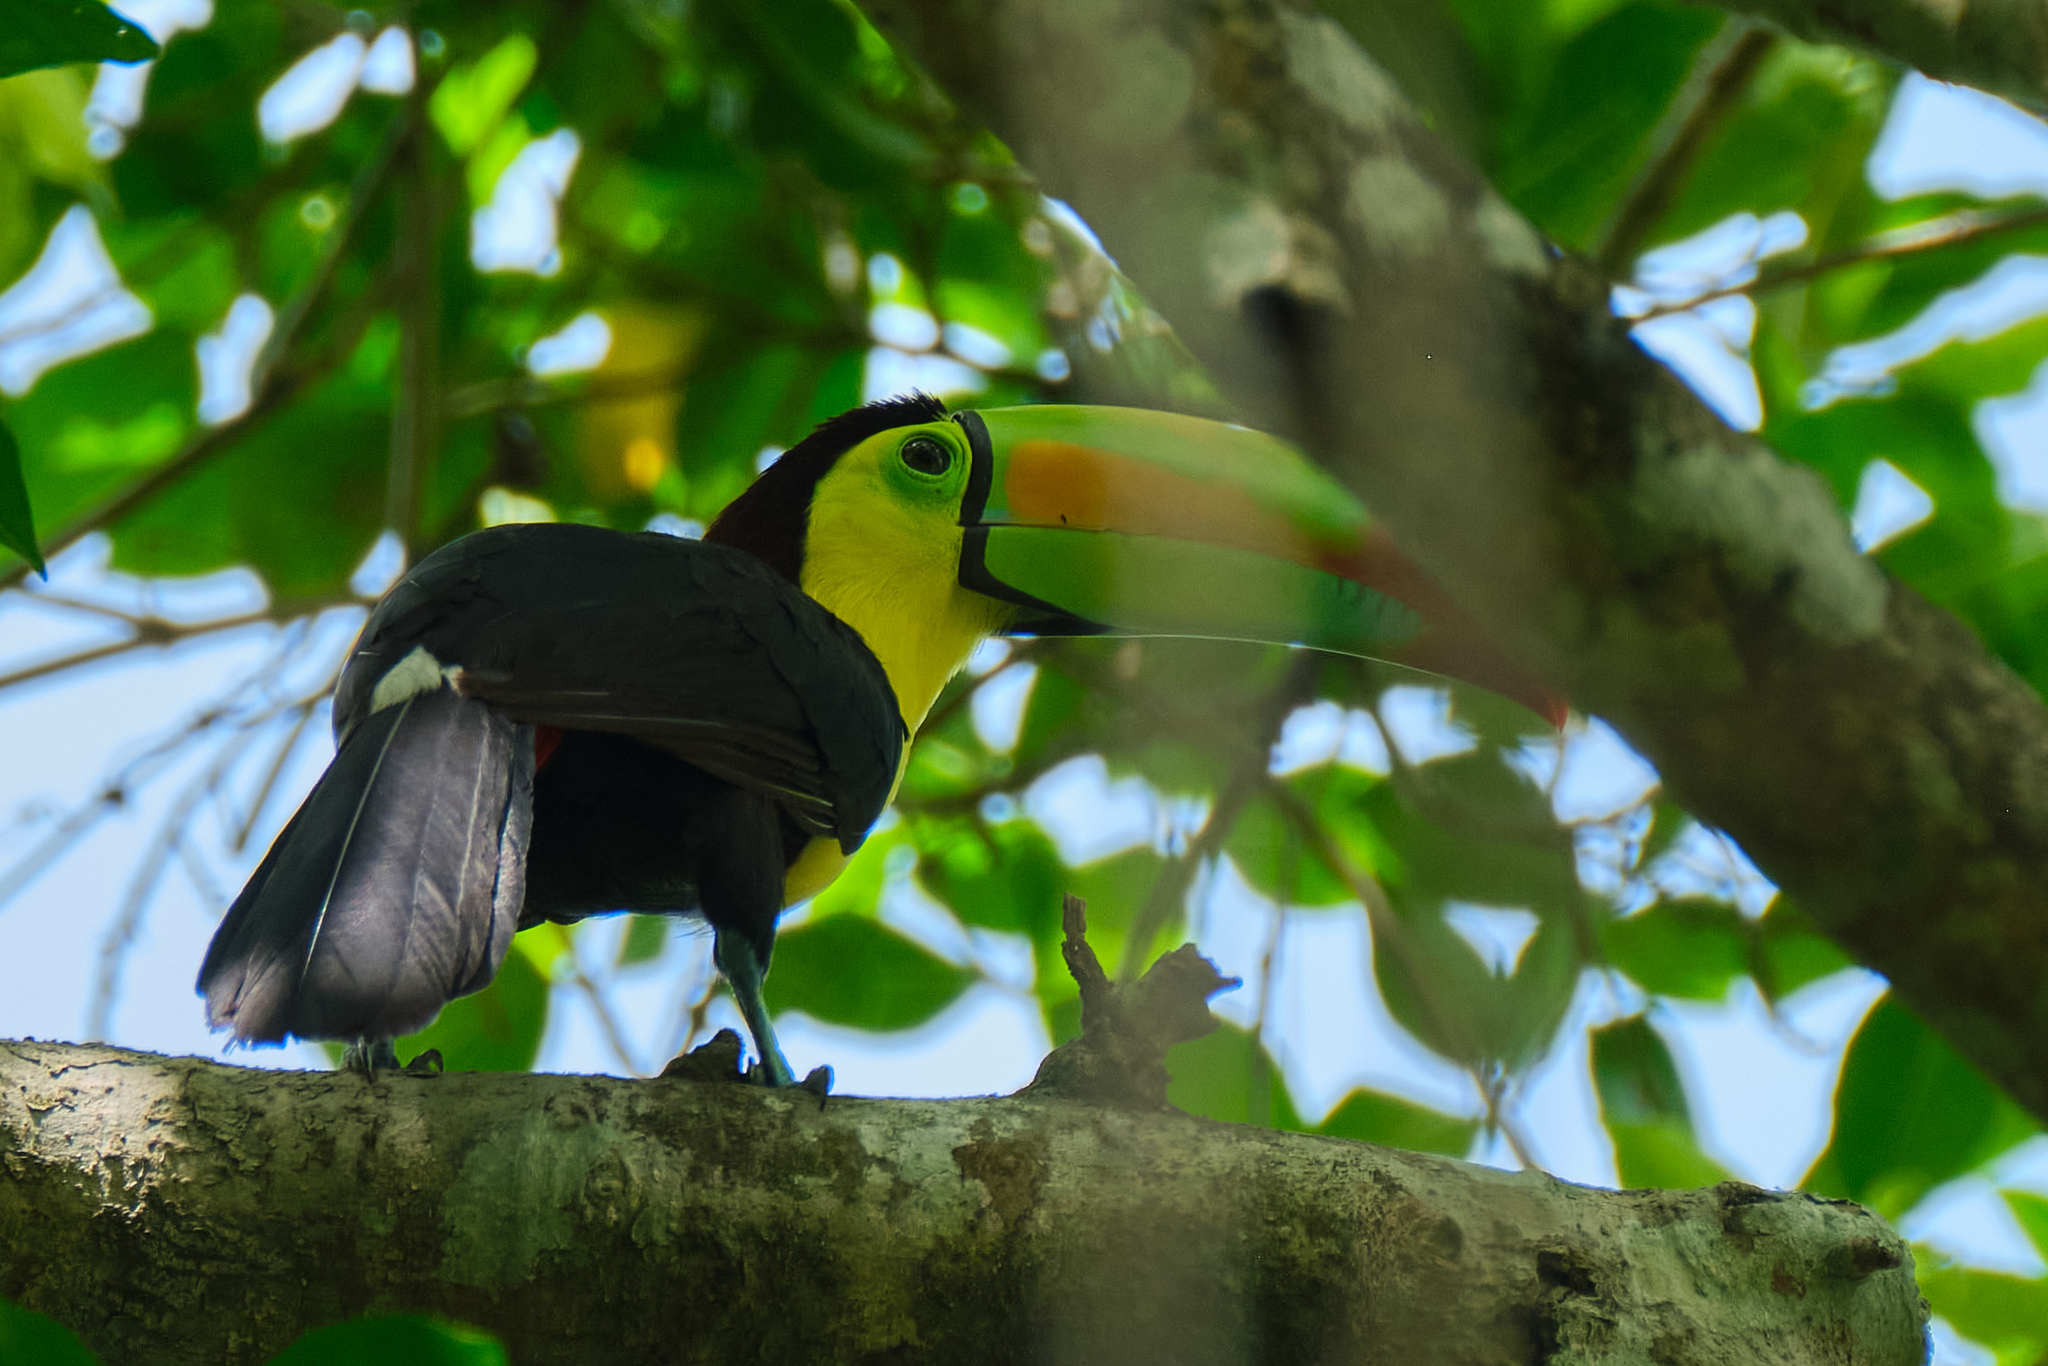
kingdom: Animalia
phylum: Chordata
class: Aves
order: Piciformes
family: Ramphastidae
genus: Ramphastos
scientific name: Ramphastos sulfuratus
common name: Keel-billed toucan
